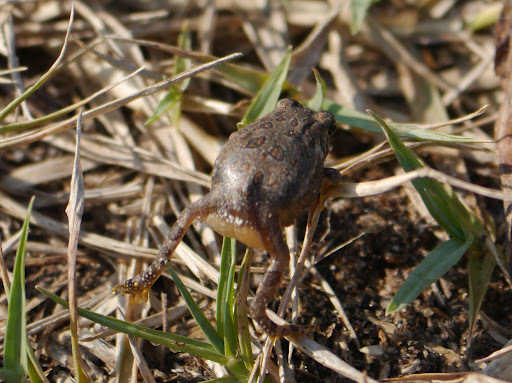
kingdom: Animalia
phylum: Chordata
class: Amphibia
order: Anura
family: Bufonidae
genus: Anaxyrus
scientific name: Anaxyrus fowleri
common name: Fowler's toad
